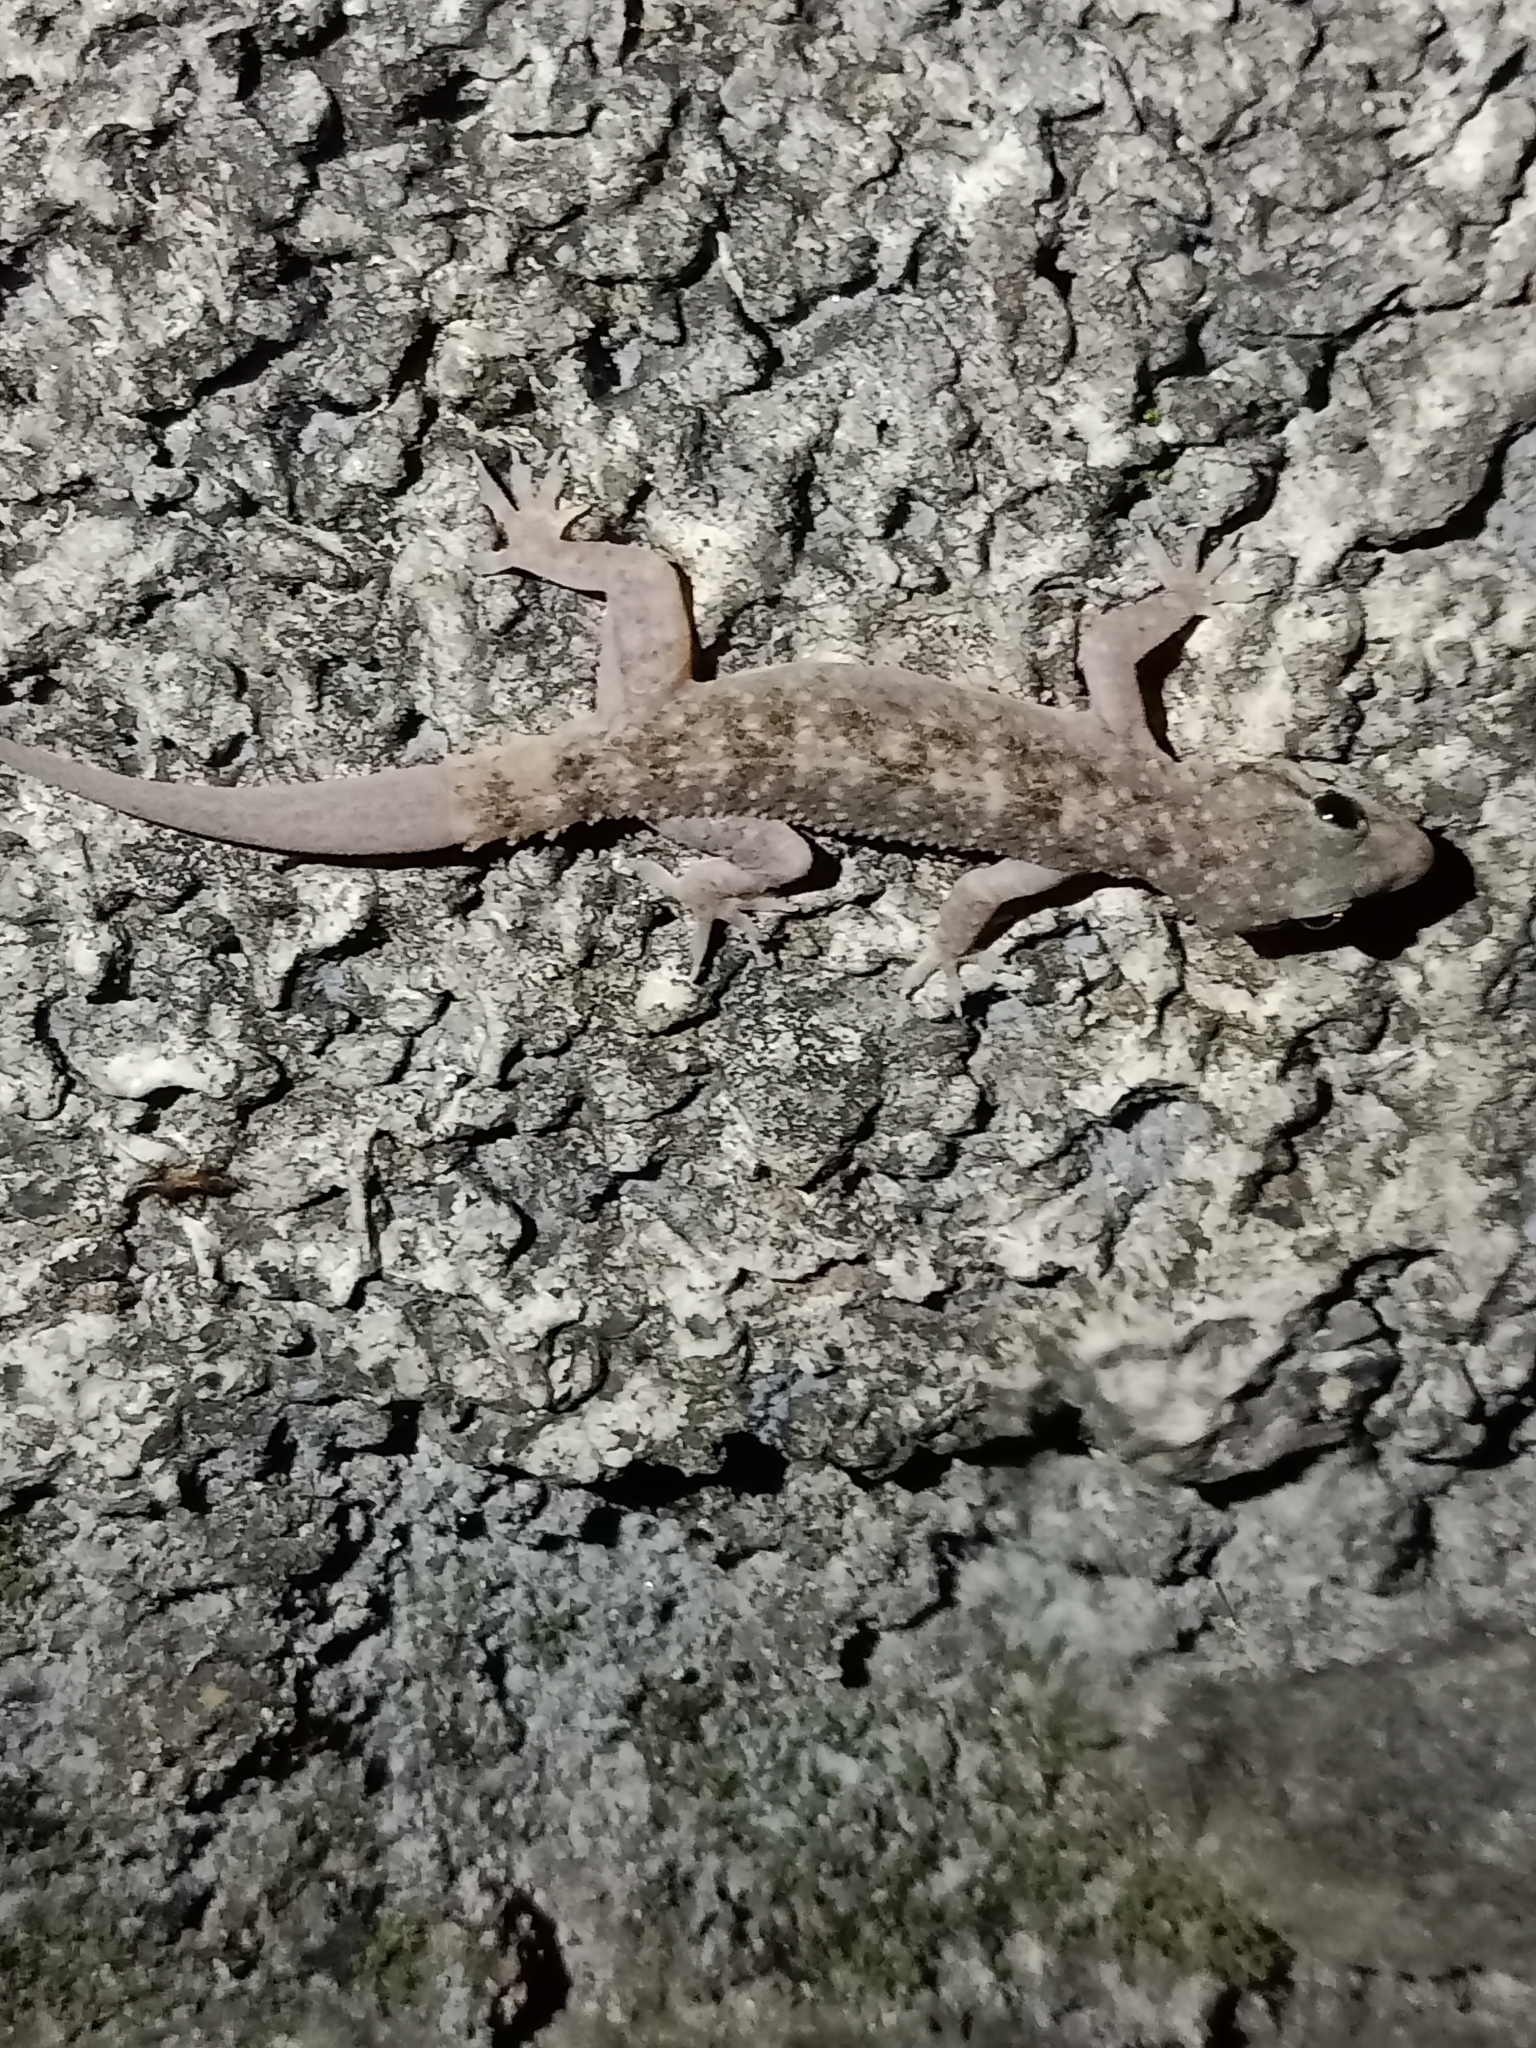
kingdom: Animalia
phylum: Chordata
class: Squamata
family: Gekkonidae
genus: Hemidactylus
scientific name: Hemidactylus parvimaculatus
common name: Spotted house gecko
